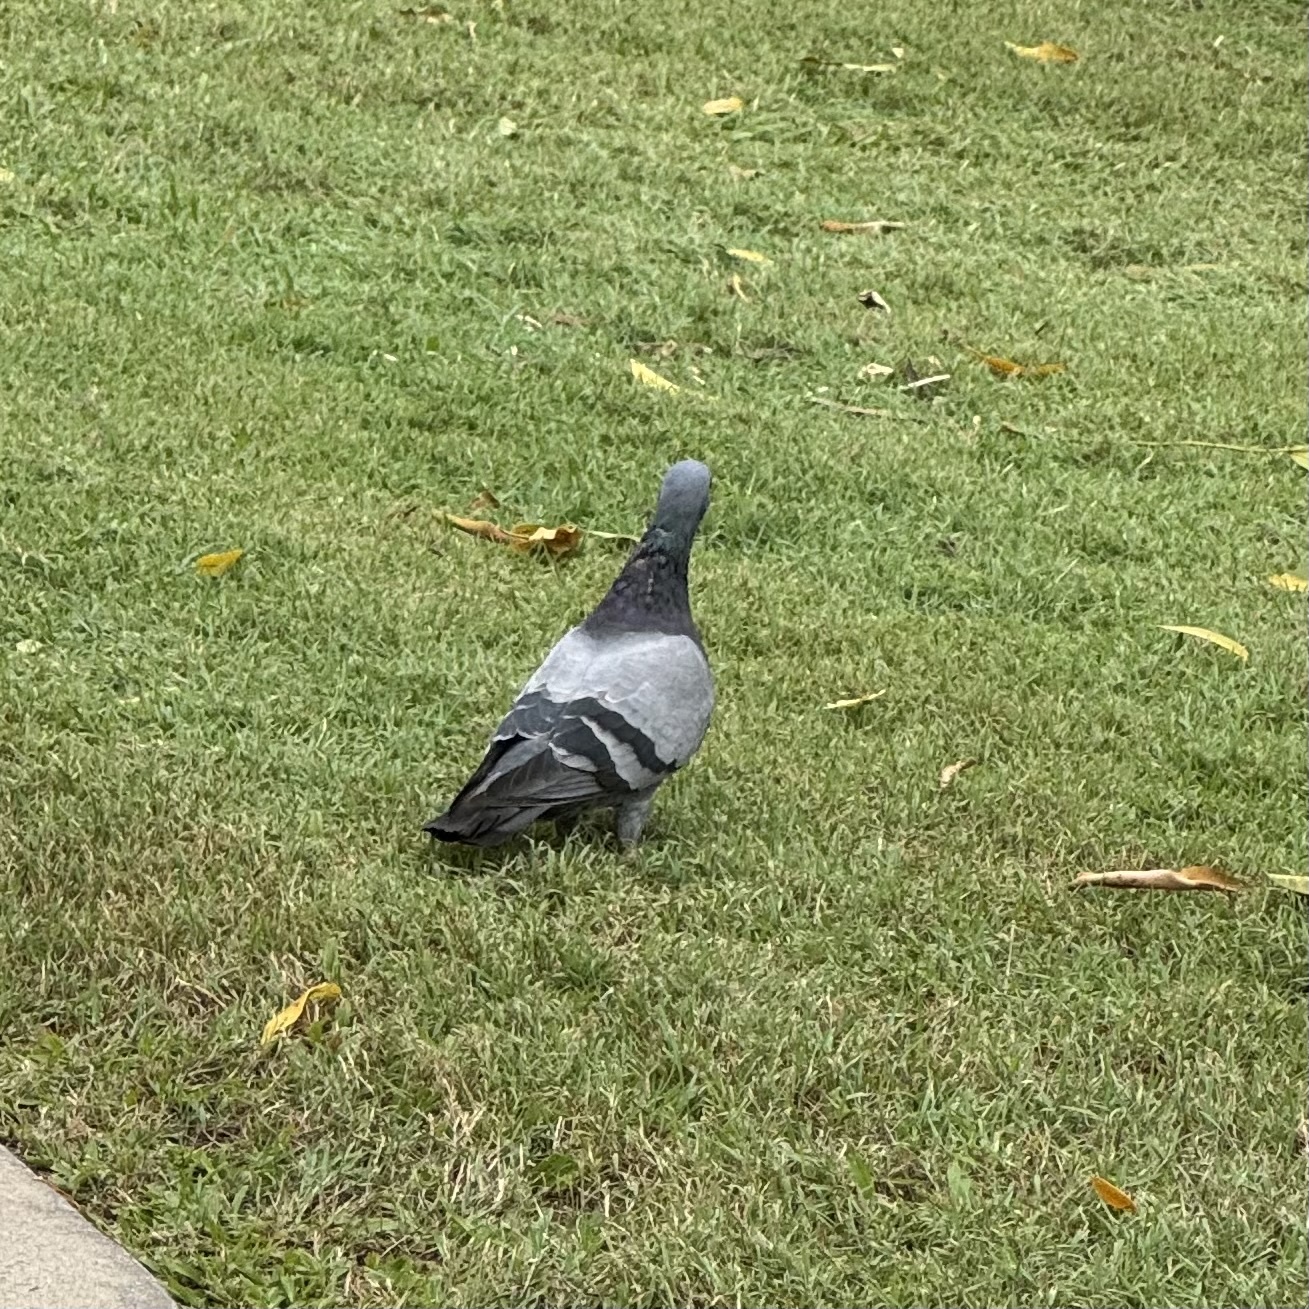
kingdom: Animalia
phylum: Chordata
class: Aves
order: Columbiformes
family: Columbidae
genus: Columba
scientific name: Columba livia
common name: Rock pigeon
